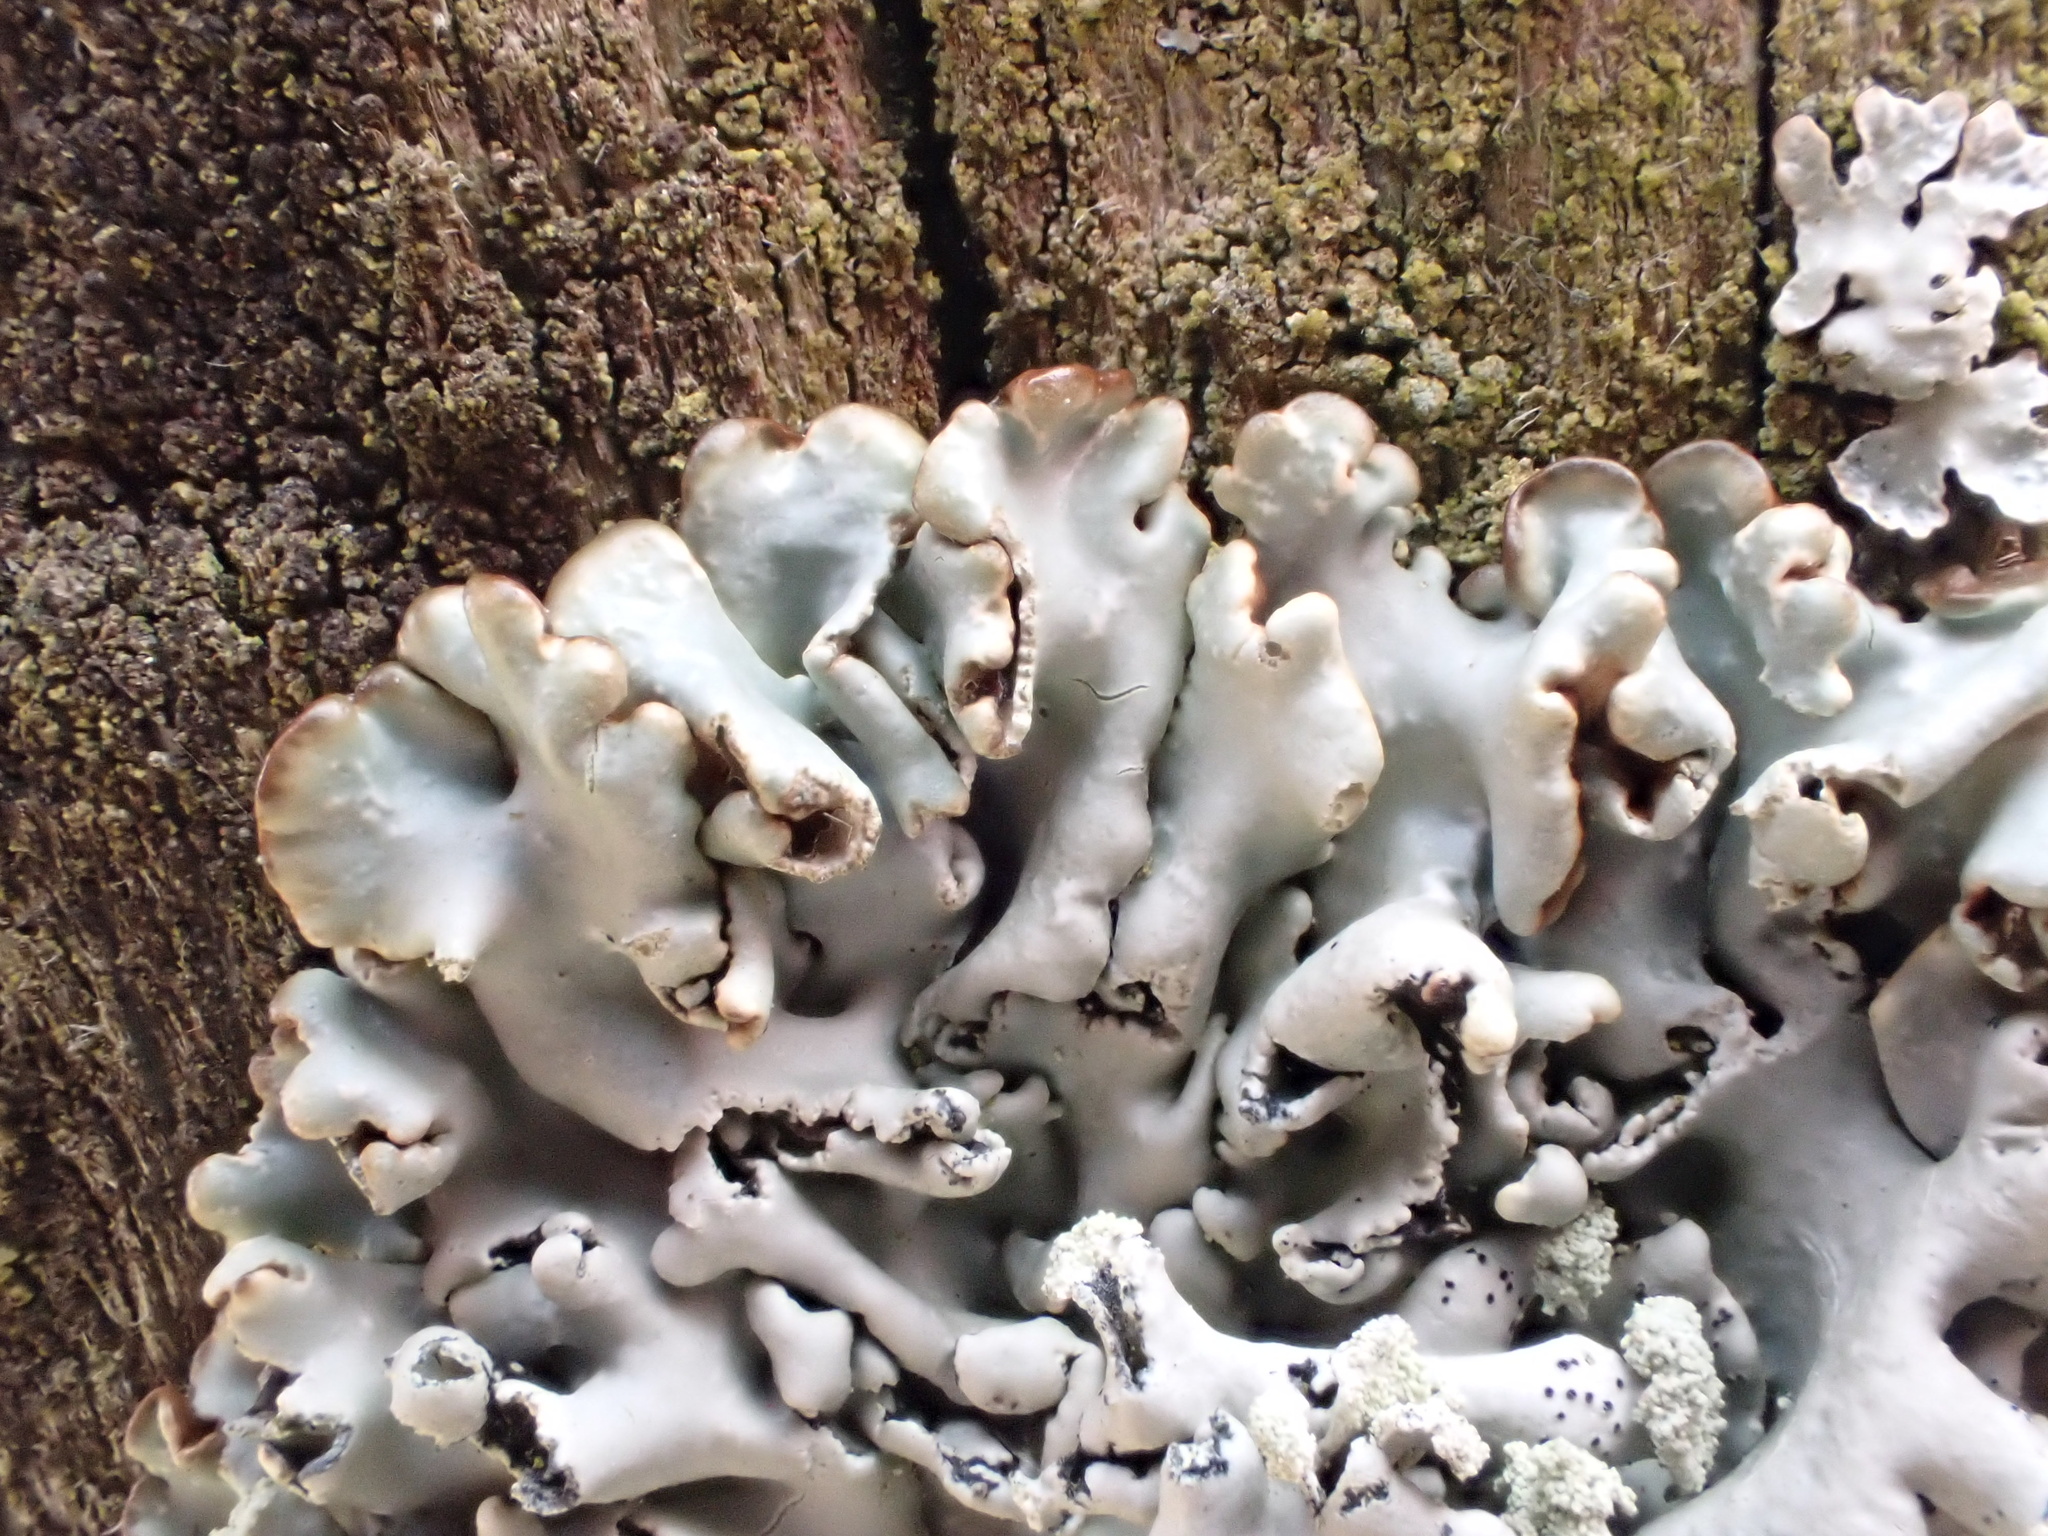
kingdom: Fungi
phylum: Ascomycota
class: Lecanoromycetes
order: Lecanorales
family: Parmeliaceae
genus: Hypogymnia
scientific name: Hypogymnia physodes
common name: Dark crottle
